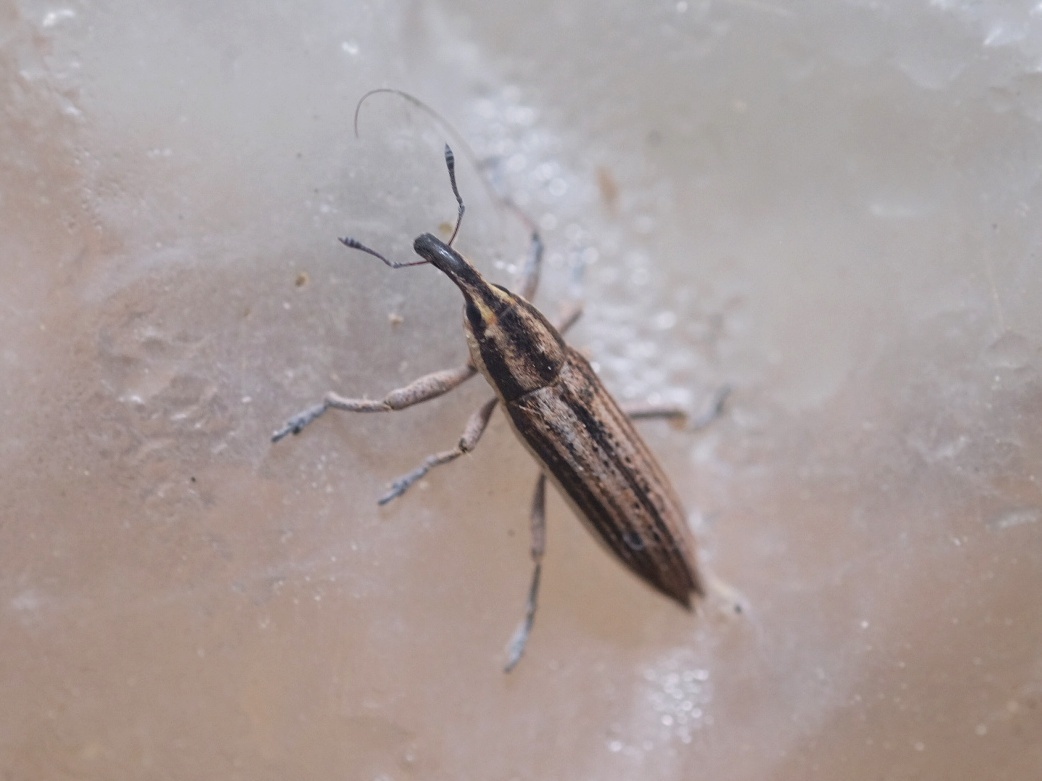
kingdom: Animalia
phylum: Arthropoda
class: Insecta
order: Coleoptera
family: Curculionidae
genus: Lixus
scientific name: Lixus anguinus
